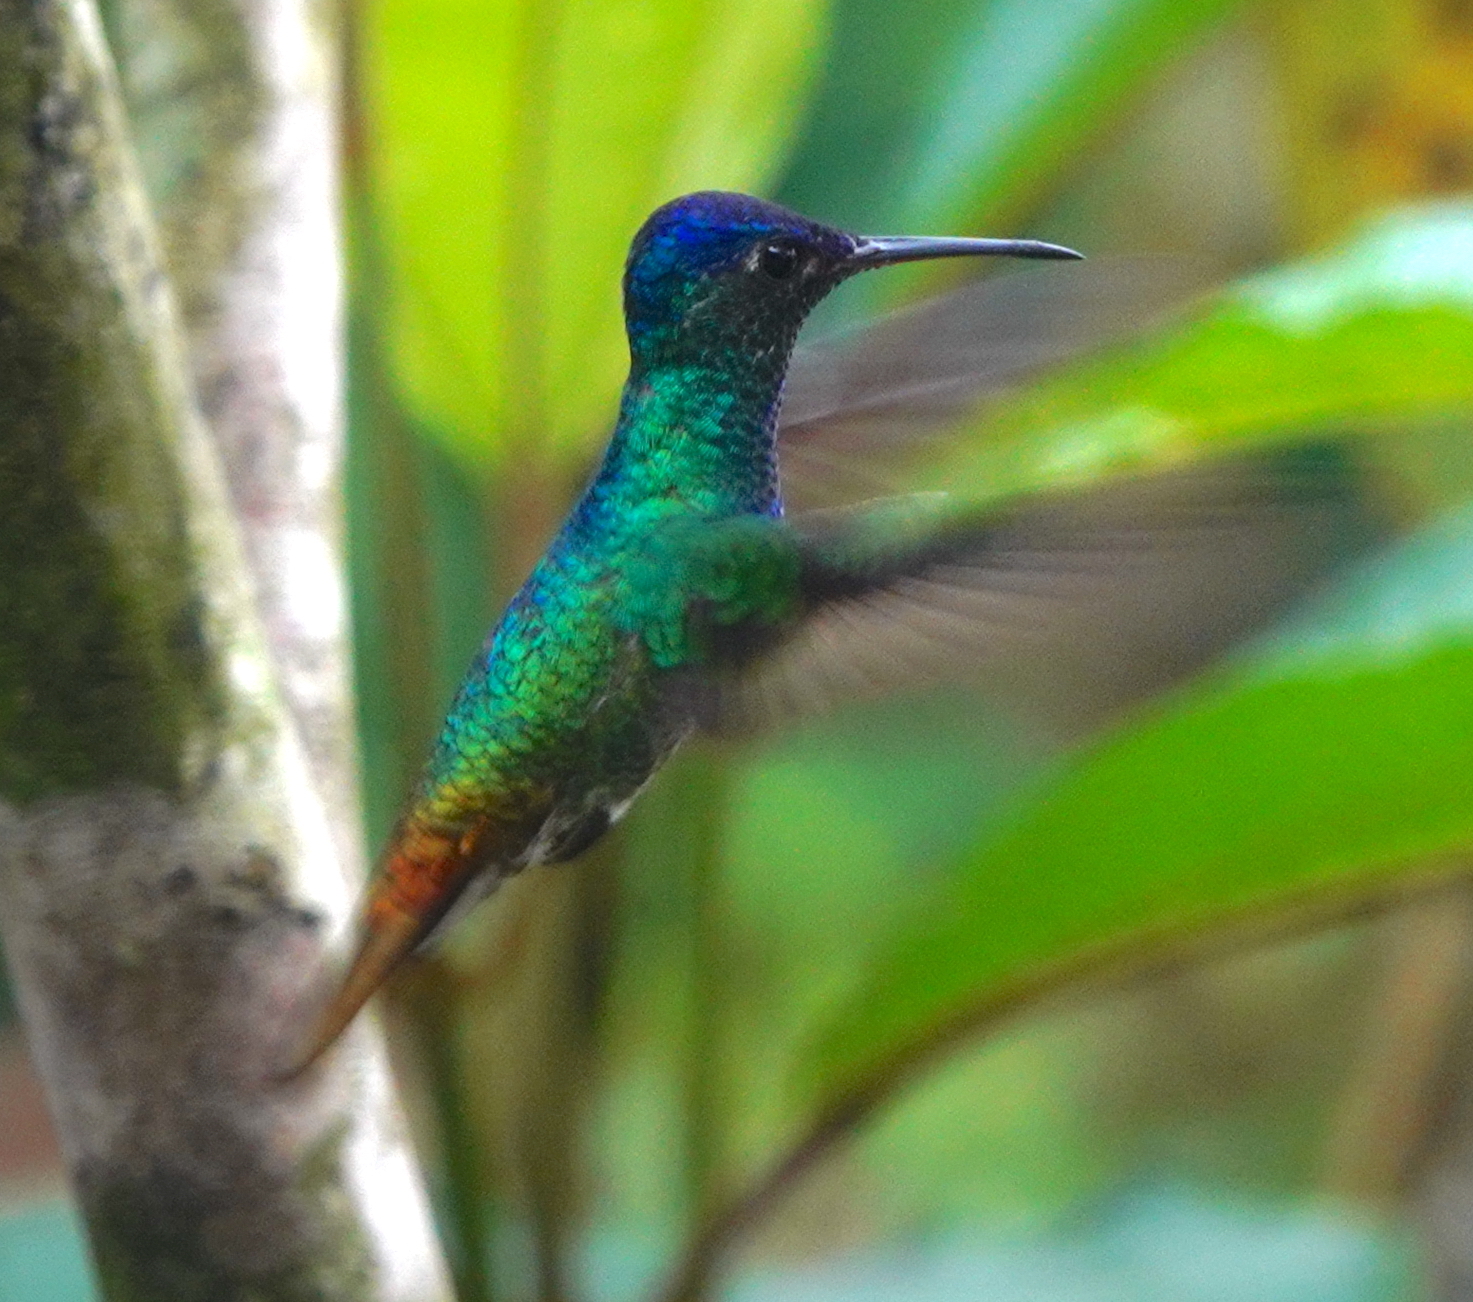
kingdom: Animalia
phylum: Chordata
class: Aves
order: Apodiformes
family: Trochilidae
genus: Chrysuronia
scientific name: Chrysuronia oenone
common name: Golden-tailed sapphire
